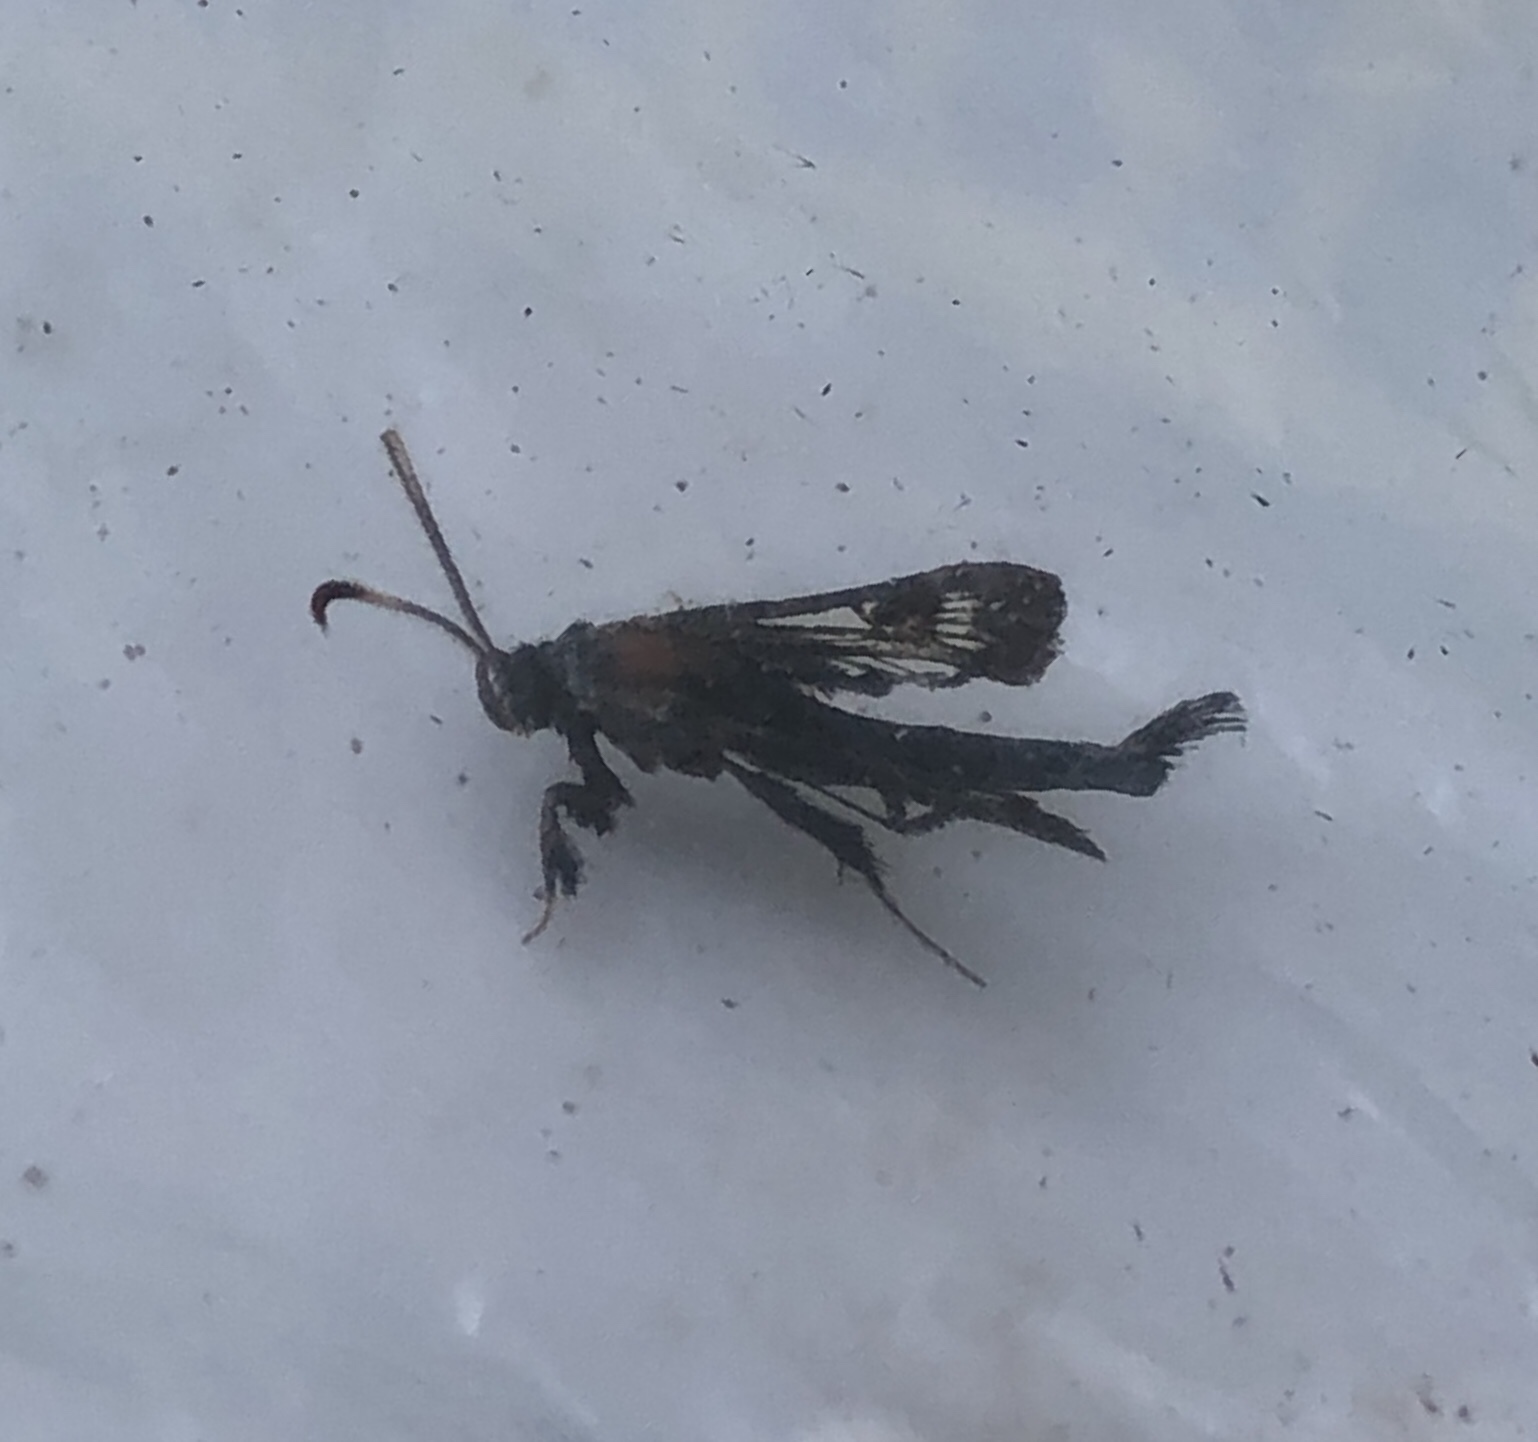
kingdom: Animalia
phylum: Arthropoda
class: Insecta
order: Lepidoptera
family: Sesiidae
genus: Albuna
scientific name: Albuna fraxini
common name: Virginia creeper clearwing
